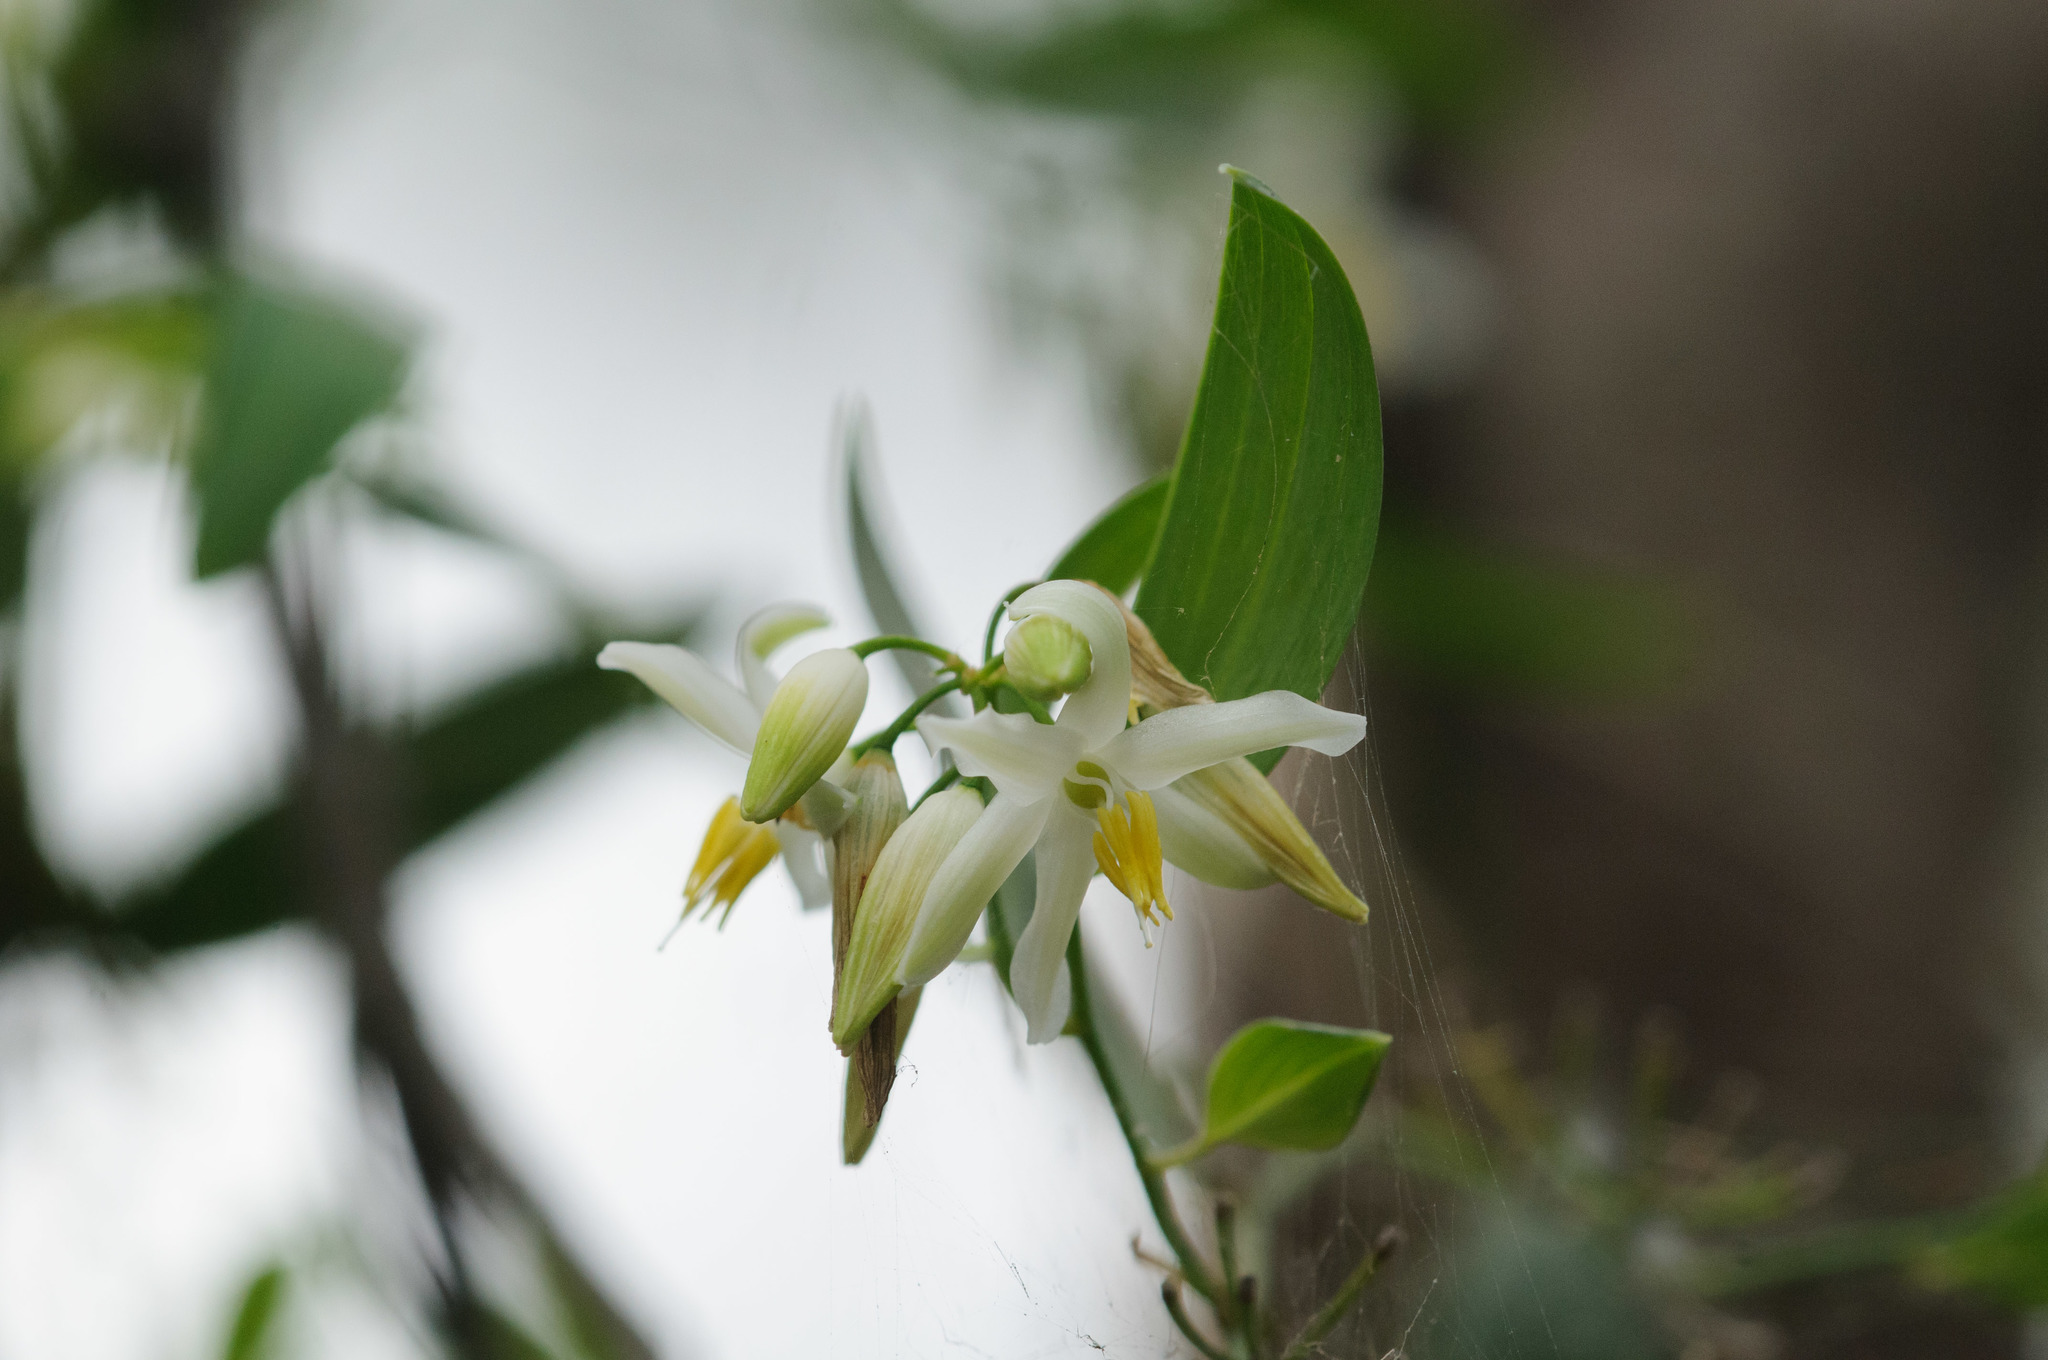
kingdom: Plantae
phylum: Tracheophyta
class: Liliopsida
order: Asparagales
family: Asphodelaceae
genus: Geitonoplesium
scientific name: Geitonoplesium cymosum
